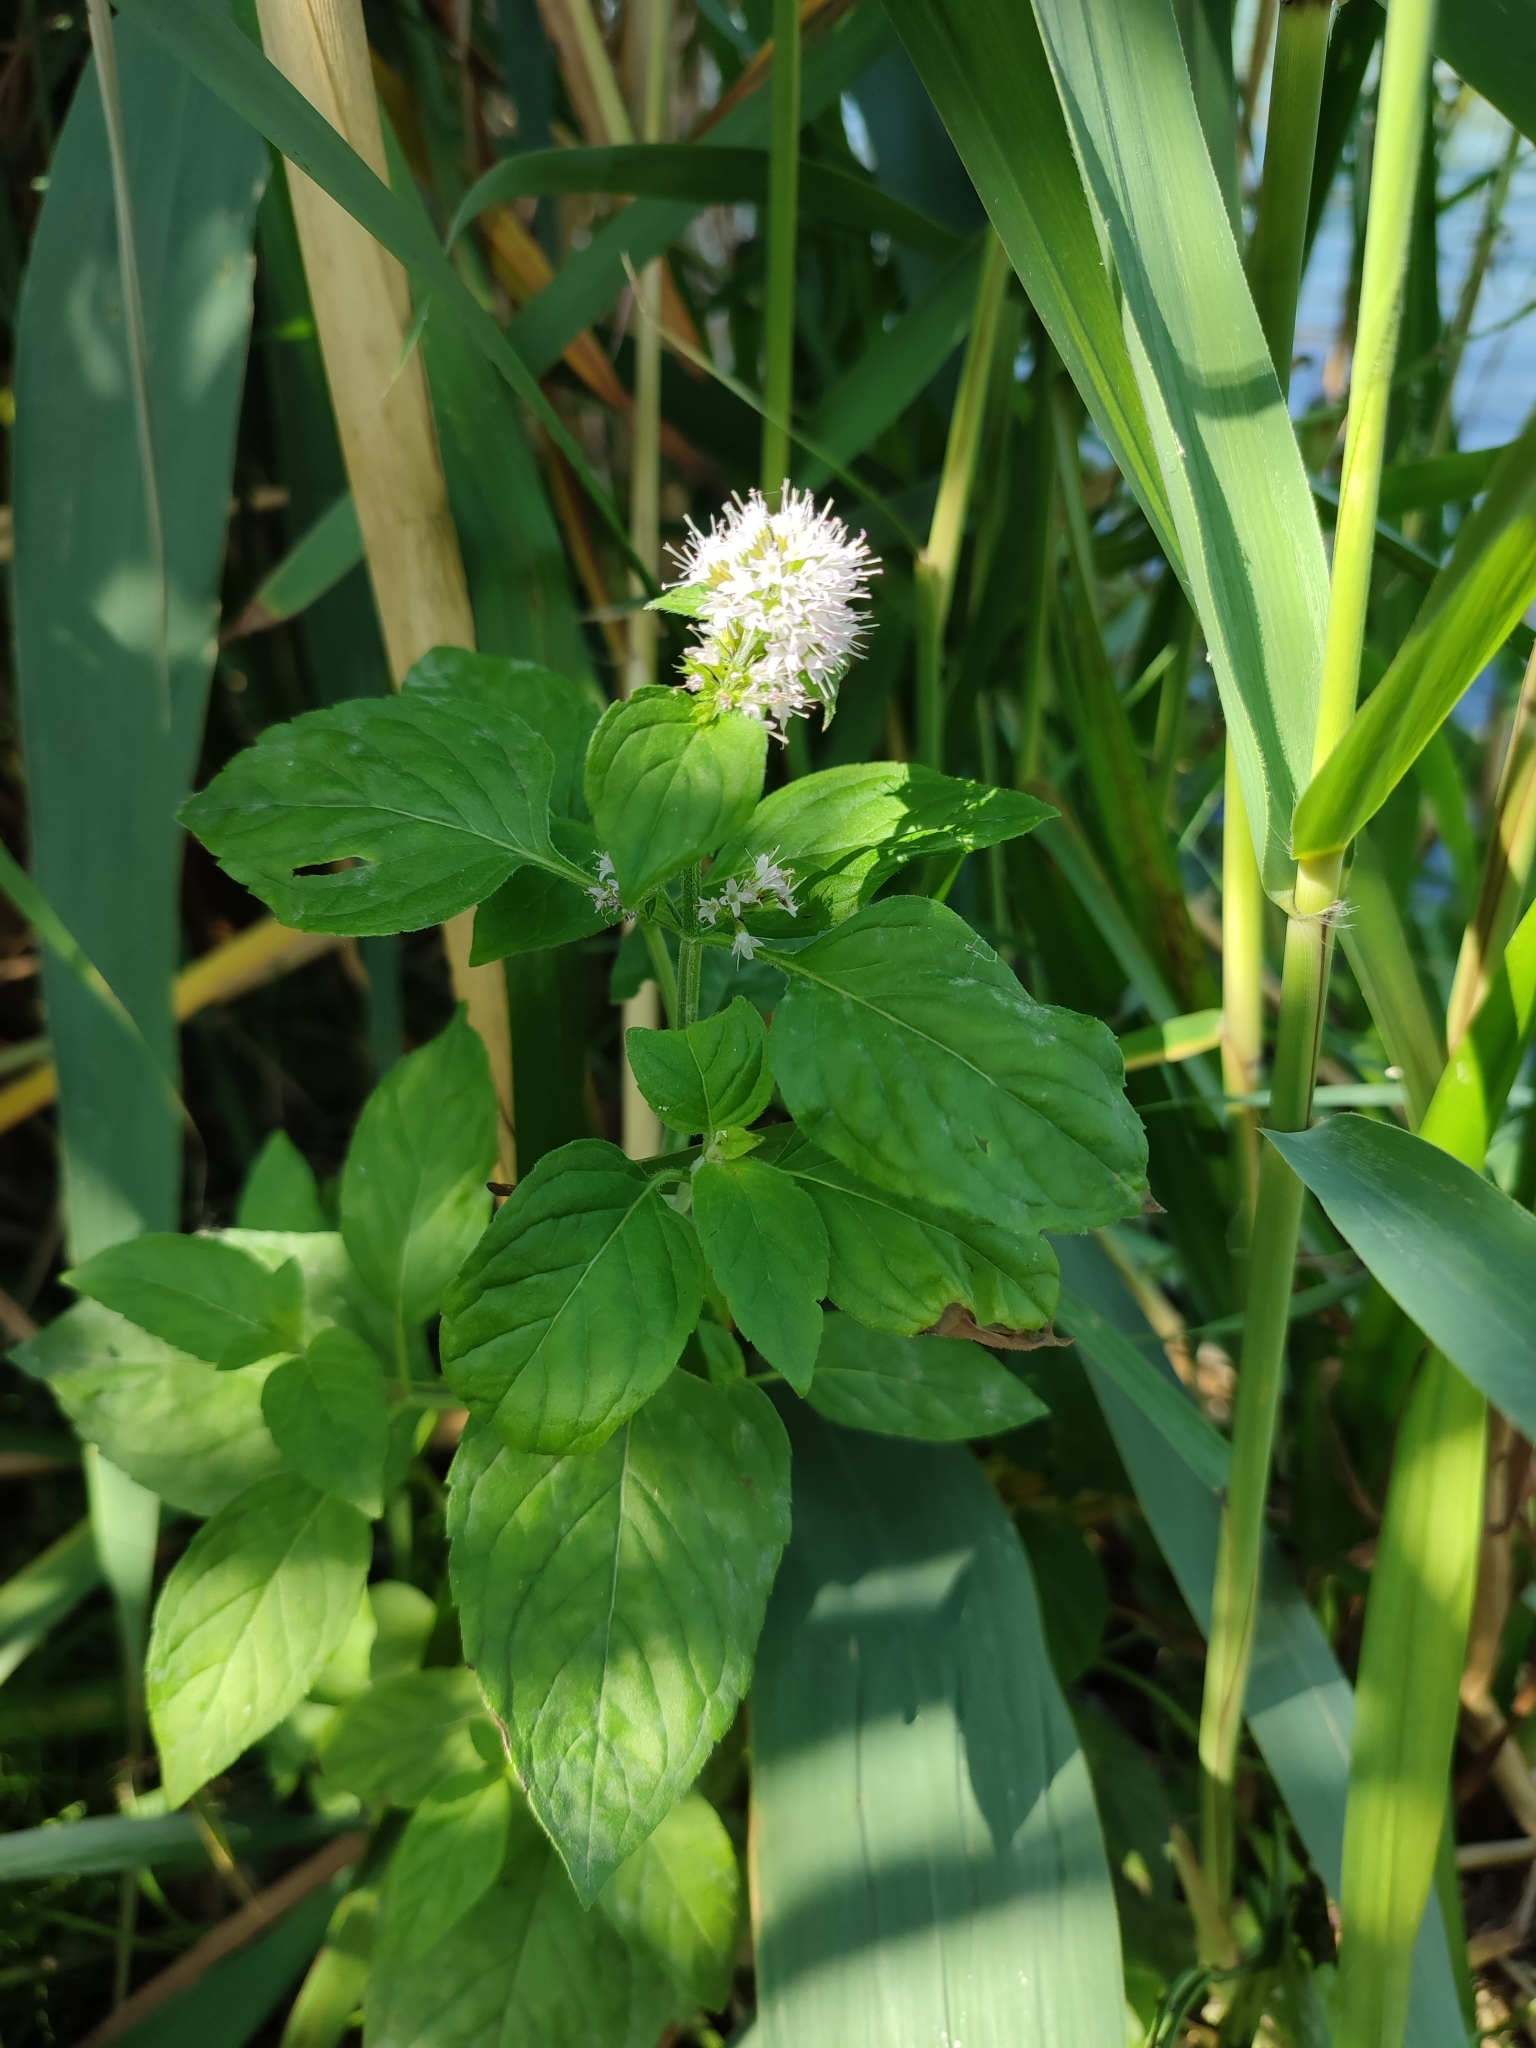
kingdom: Plantae
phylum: Tracheophyta
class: Magnoliopsida
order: Lamiales
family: Lamiaceae
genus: Mentha
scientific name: Mentha aquatica
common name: Water mint
